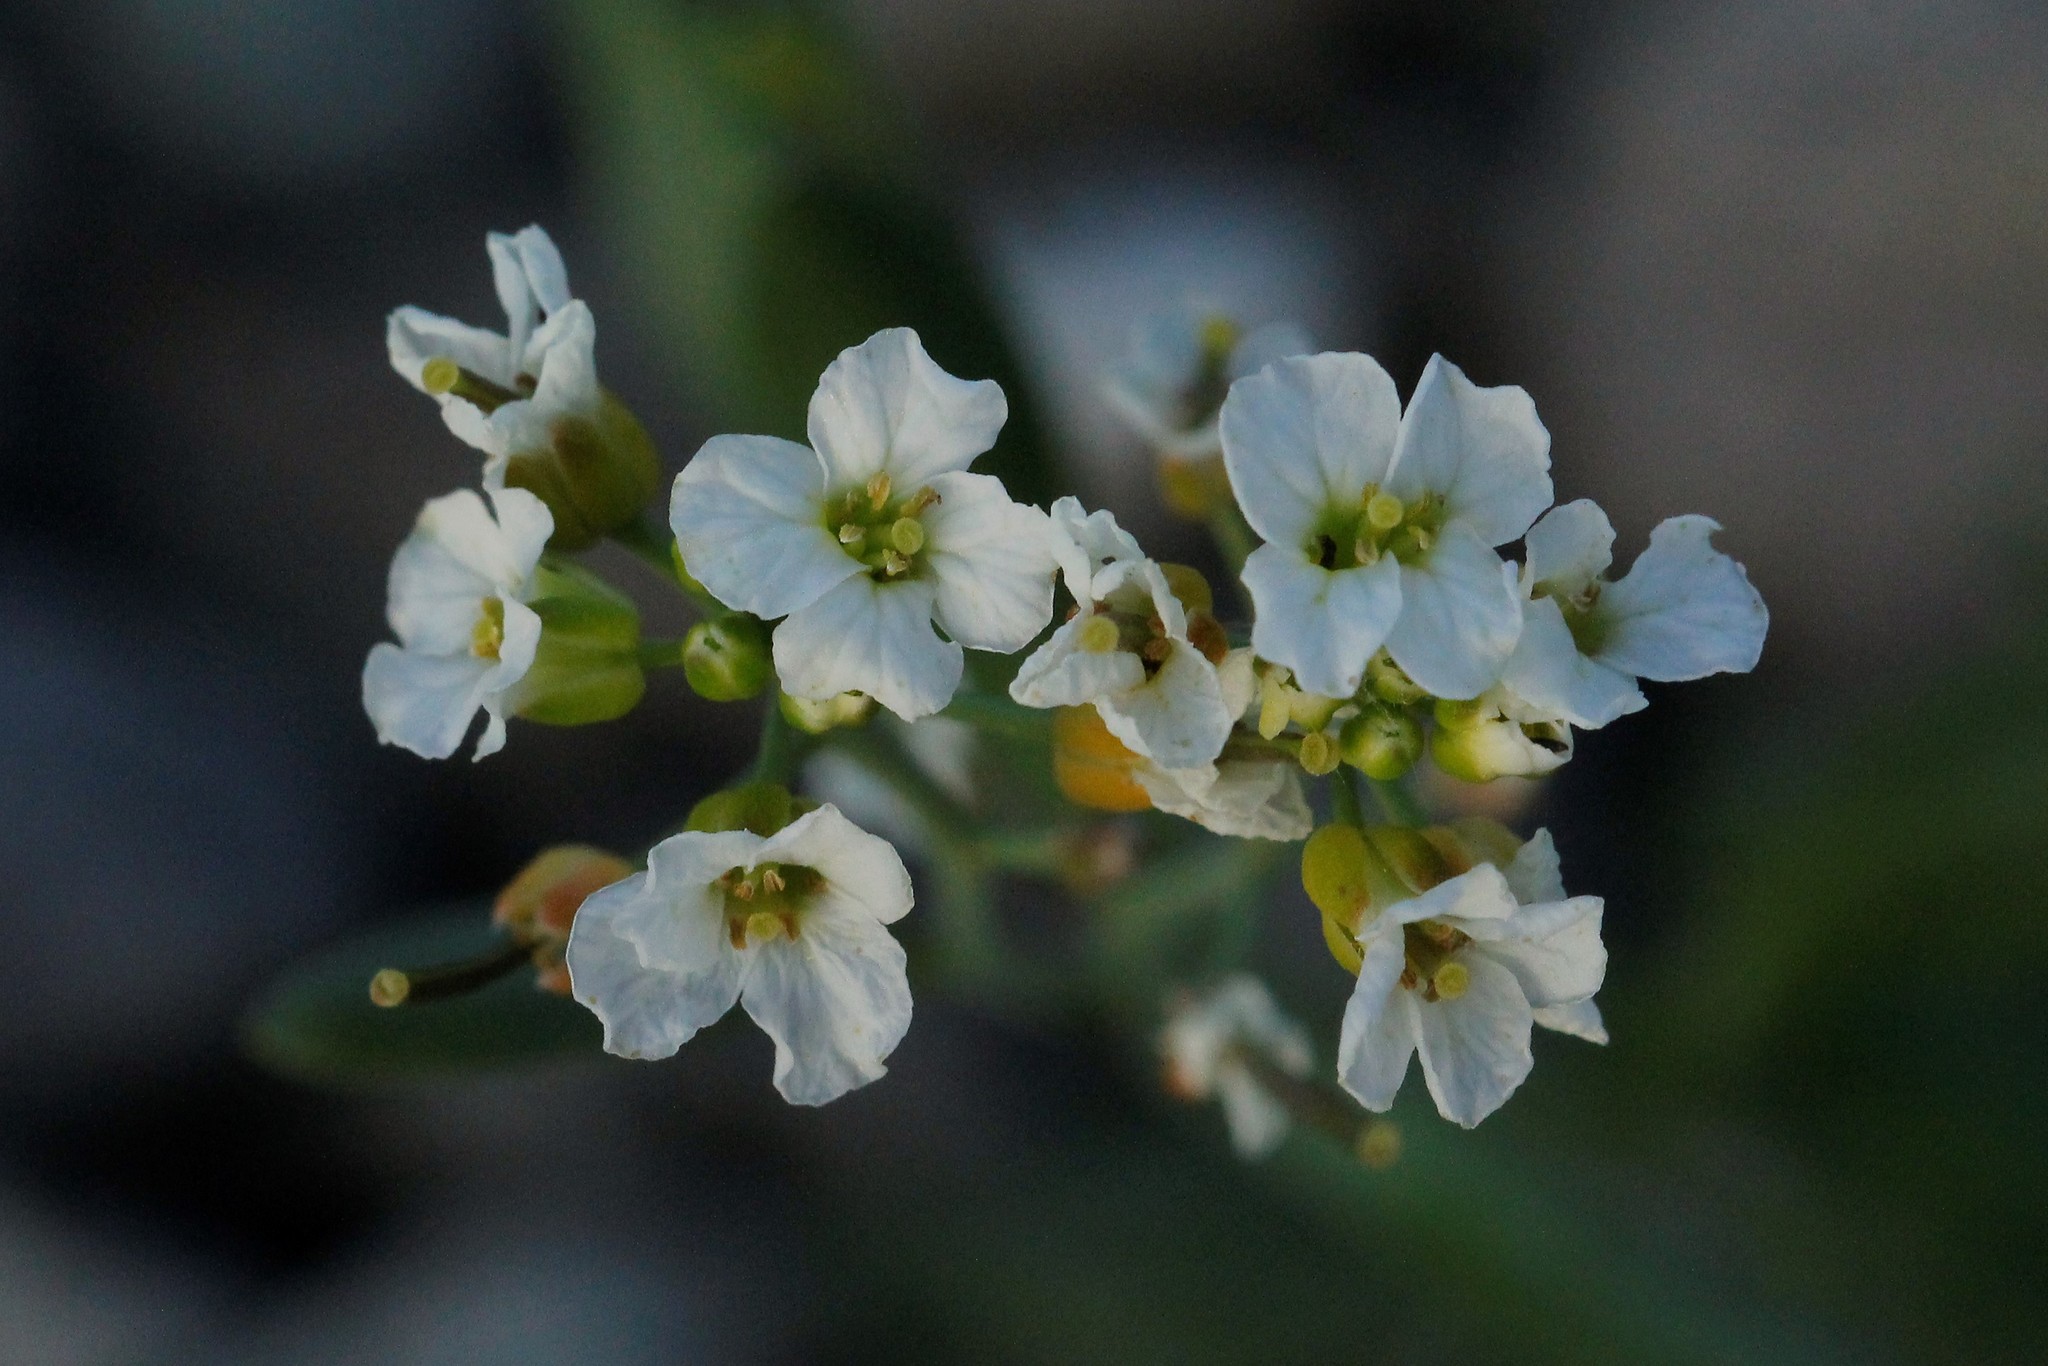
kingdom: Plantae
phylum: Tracheophyta
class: Magnoliopsida
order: Brassicales
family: Brassicaceae
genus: Arabidopsis
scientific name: Arabidopsis lyrata
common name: Lyrate rockcress
